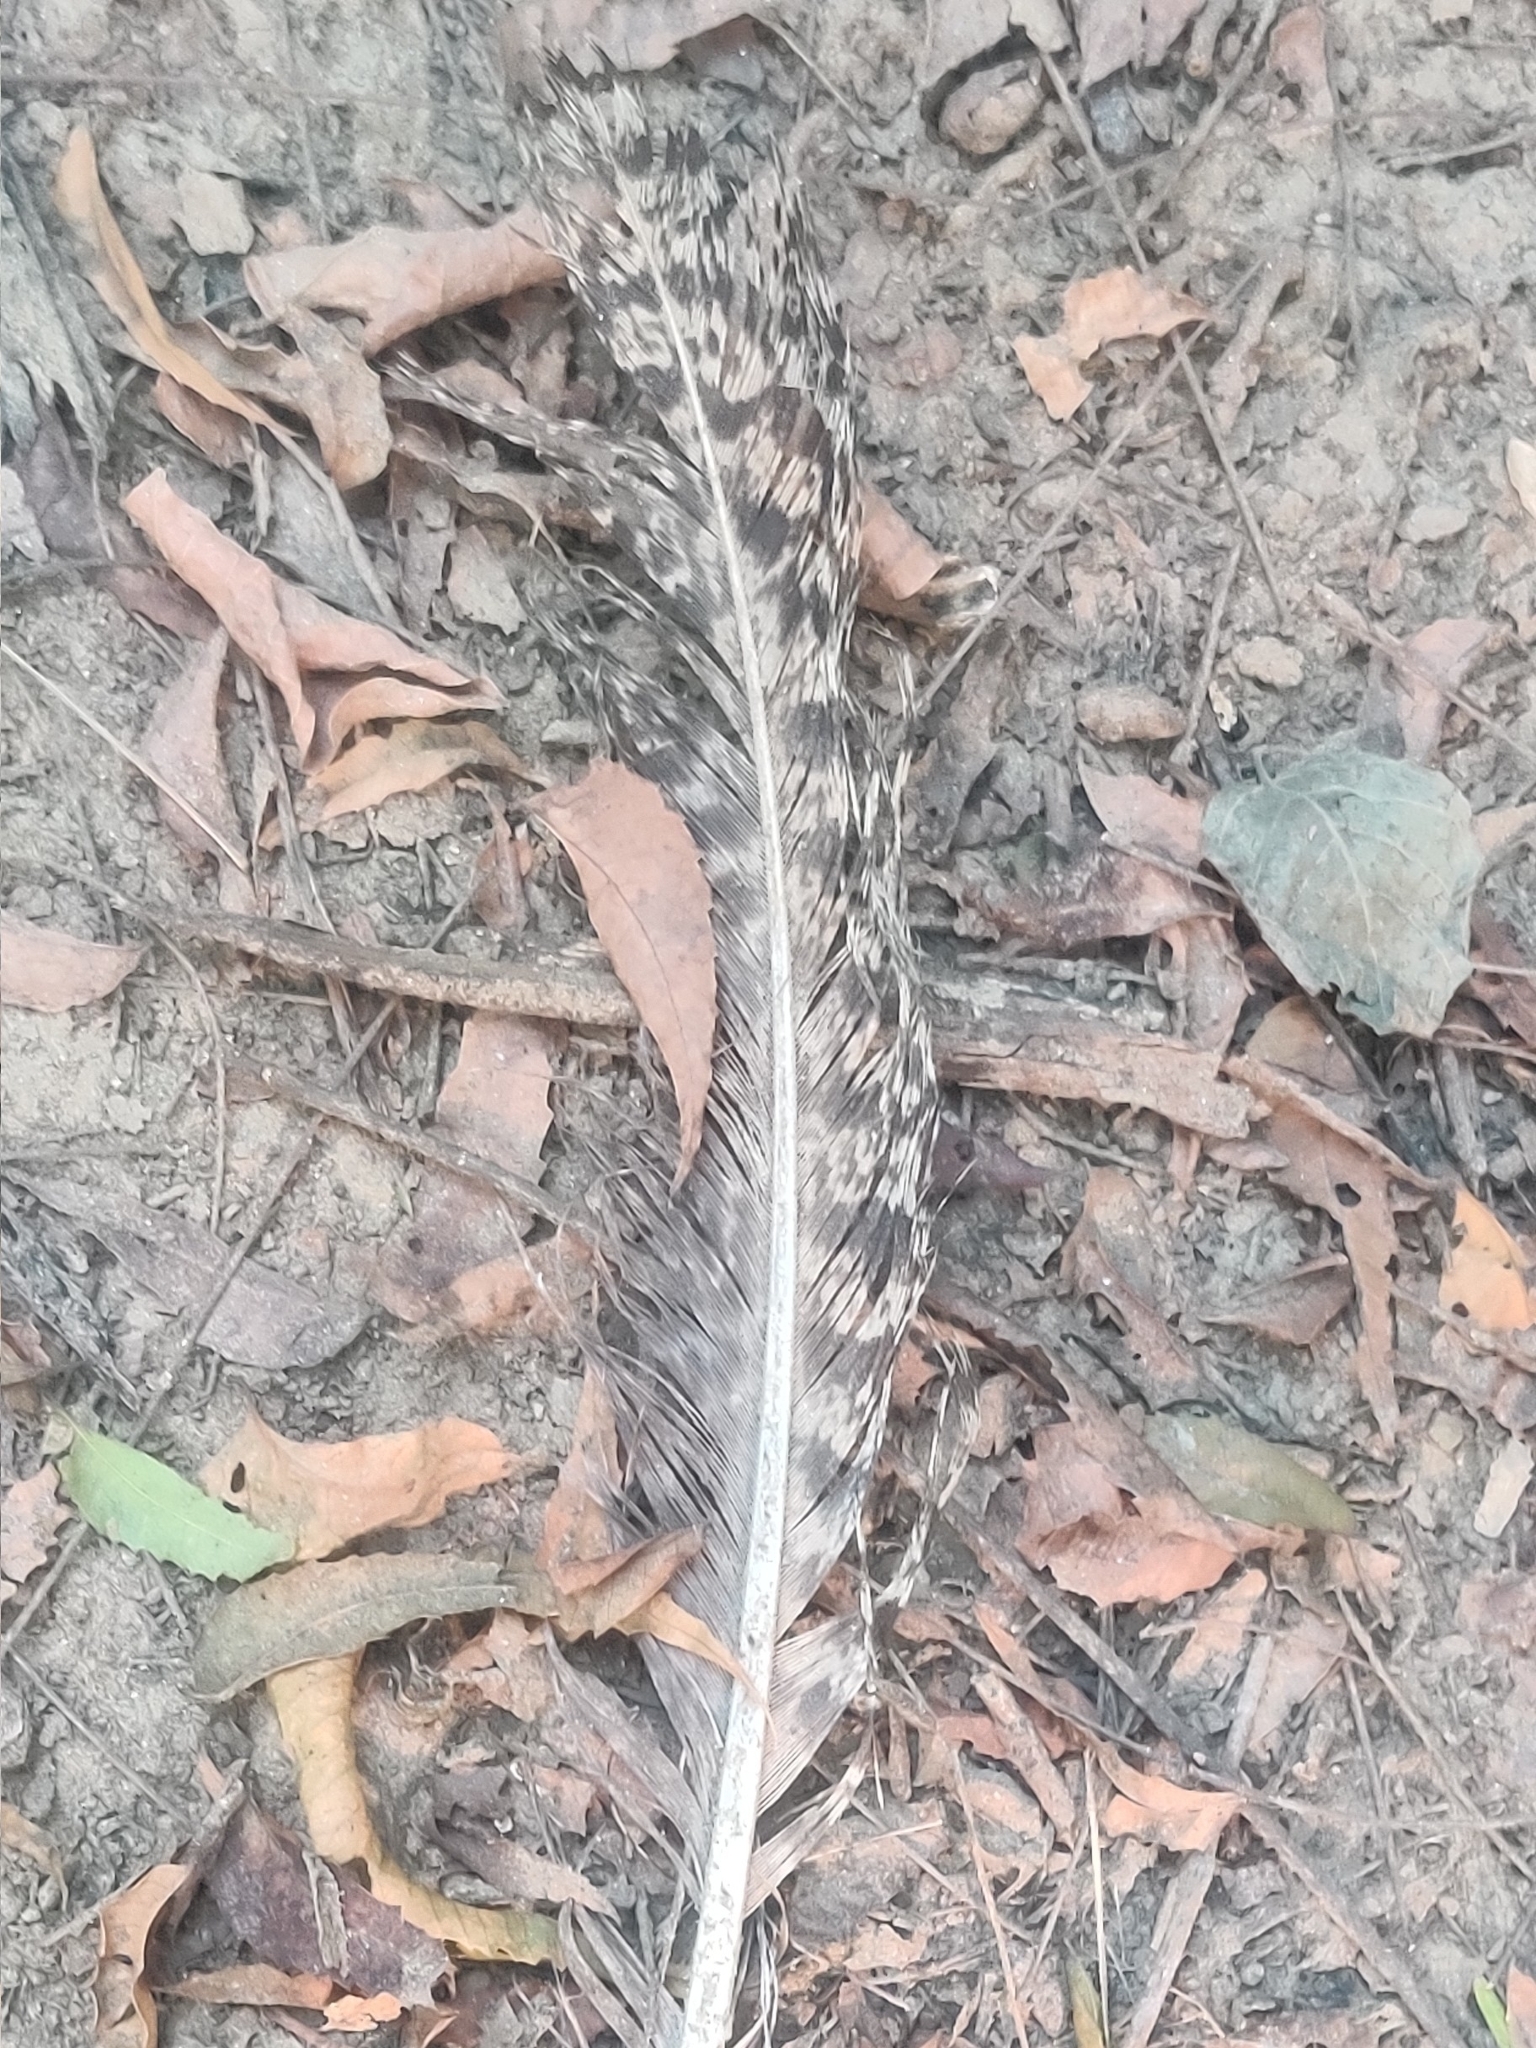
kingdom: Animalia
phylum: Chordata
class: Aves
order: Galliformes
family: Phasianidae
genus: Pavo
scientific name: Pavo cristatus
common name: Indian peafowl
